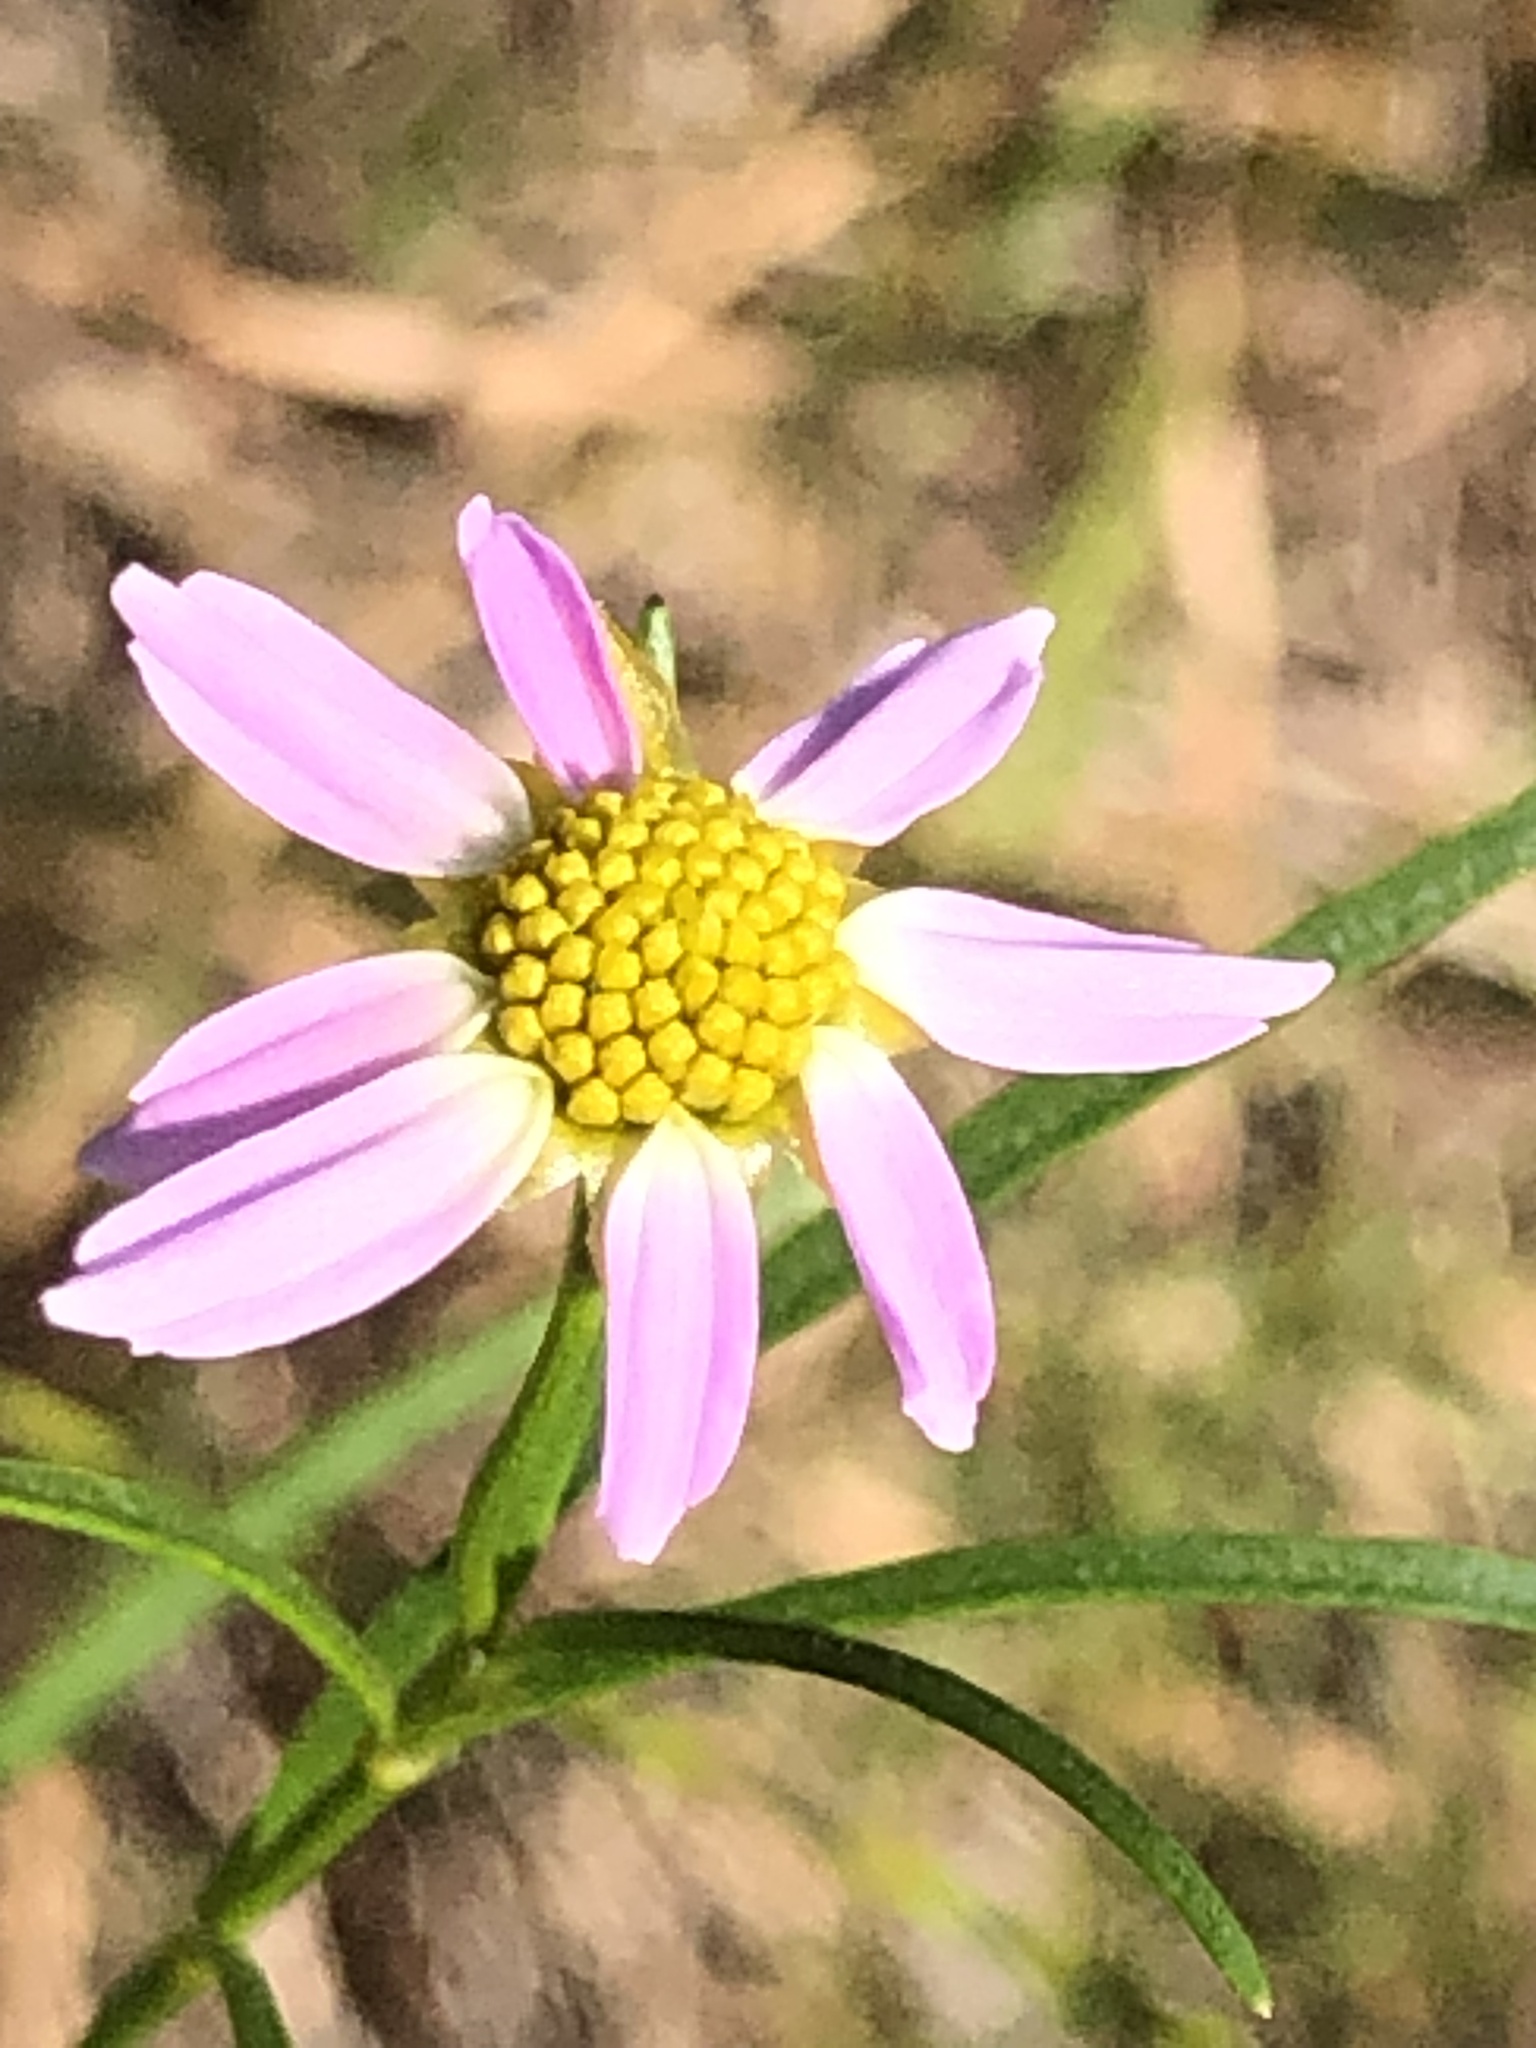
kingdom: Plantae
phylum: Tracheophyta
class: Magnoliopsida
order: Asterales
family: Asteraceae
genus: Coreopsis
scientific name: Coreopsis rosea
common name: Pink coreopsis
